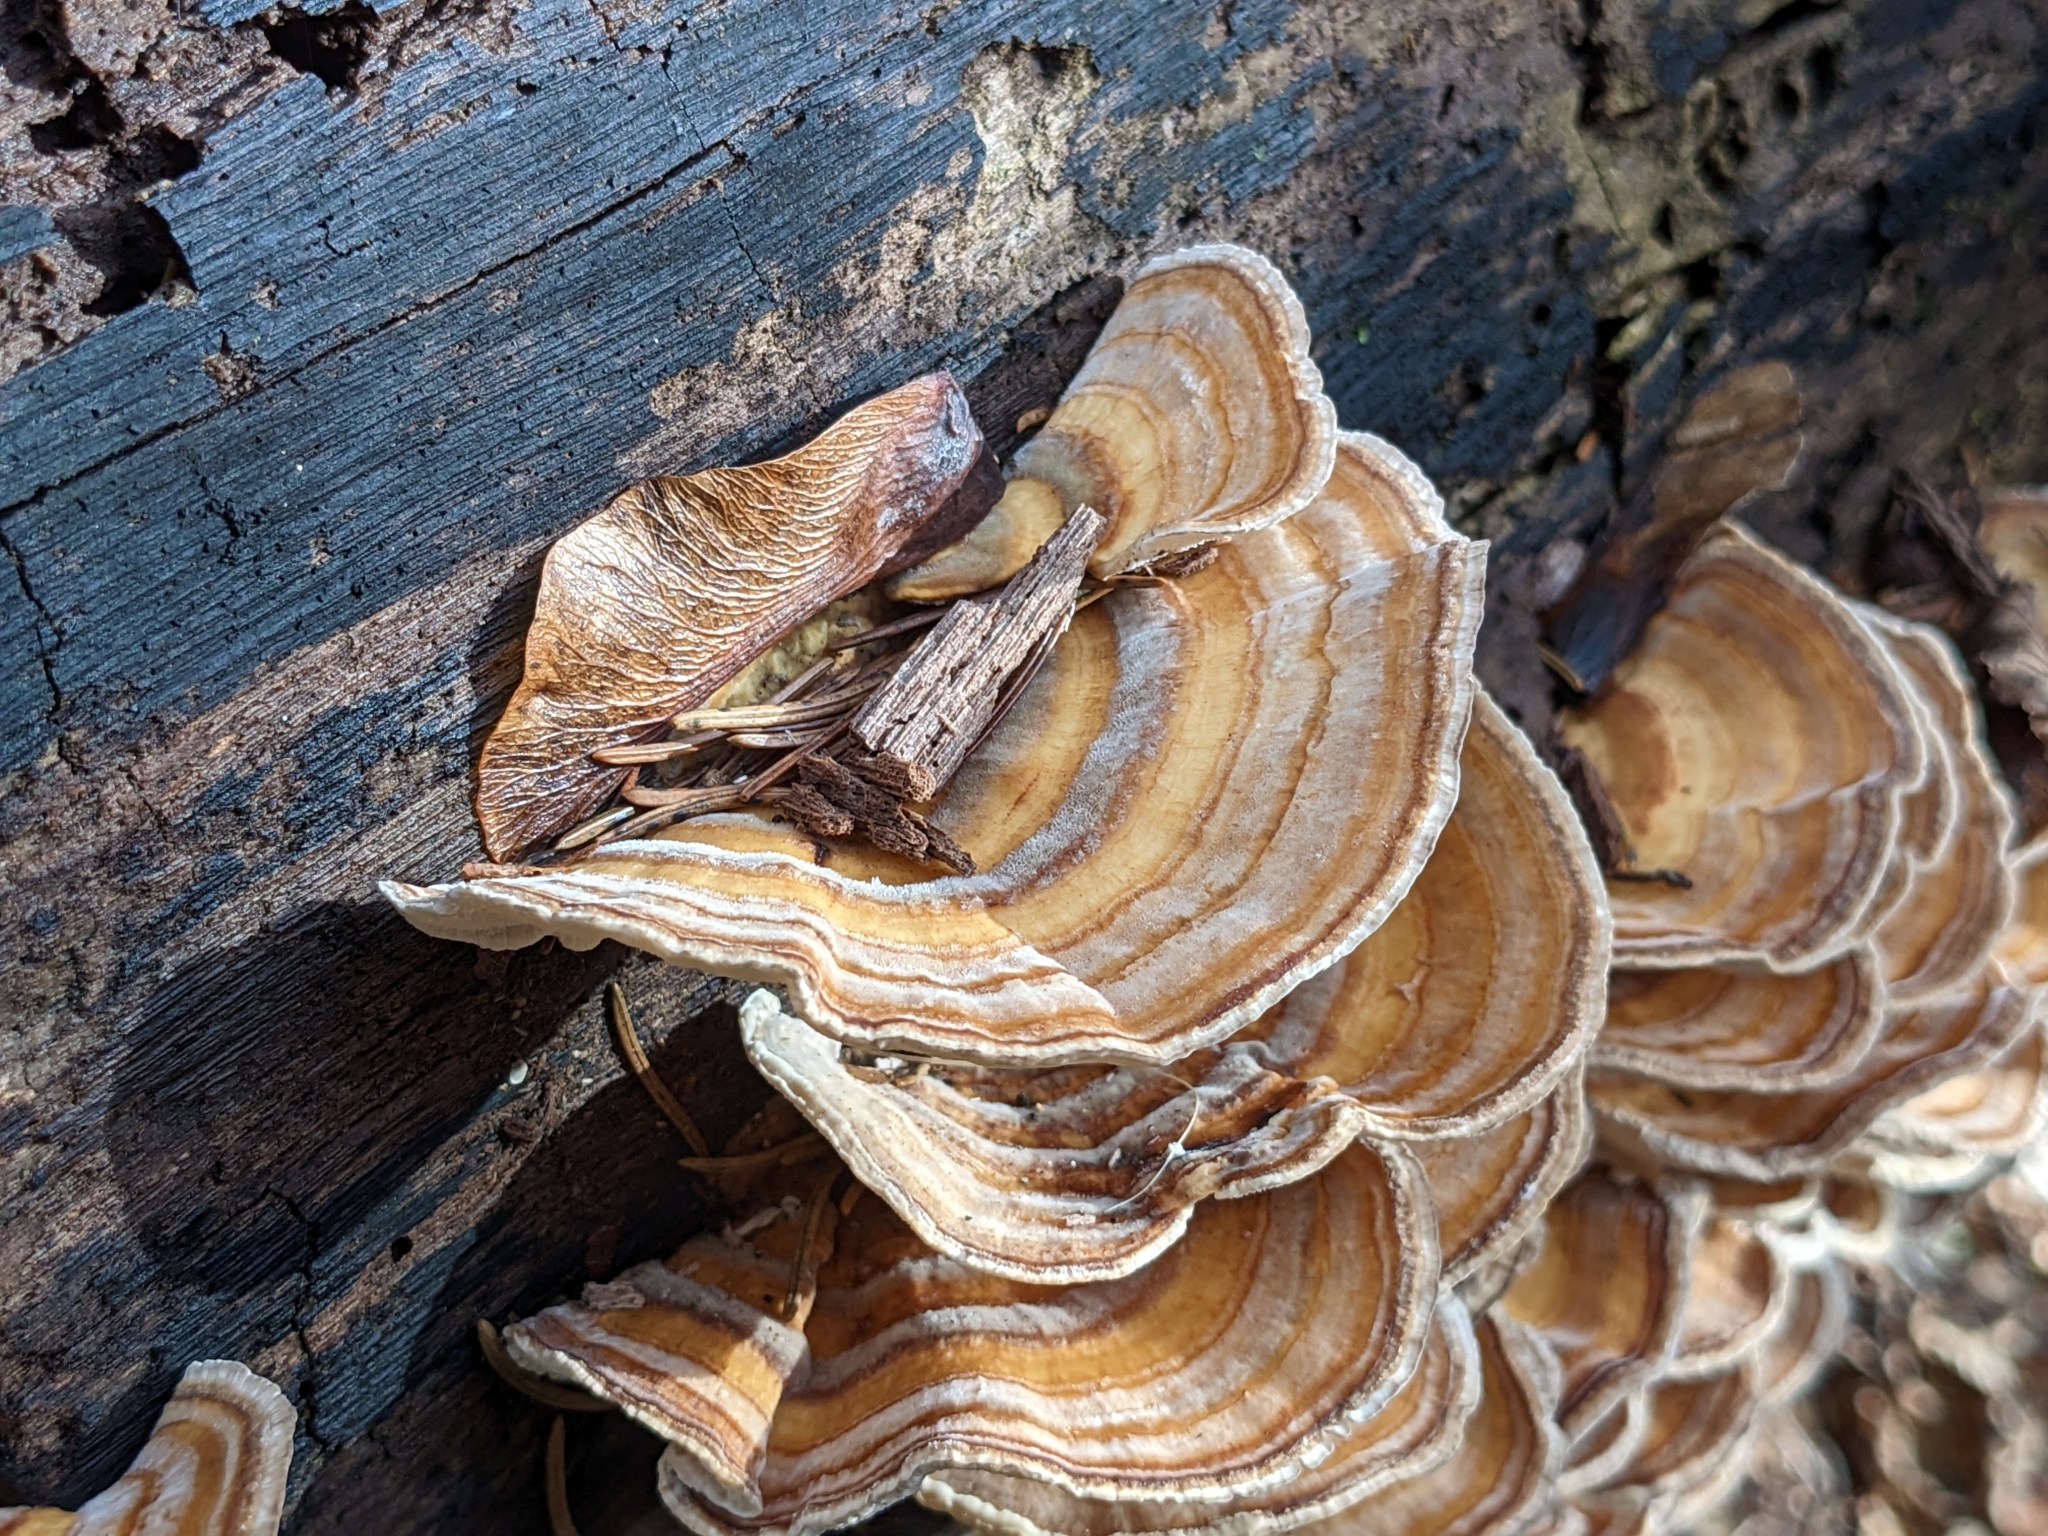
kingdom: Fungi
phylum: Basidiomycota
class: Agaricomycetes
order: Polyporales
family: Polyporaceae
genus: Trametes
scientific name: Trametes versicolor
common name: Turkeytail
